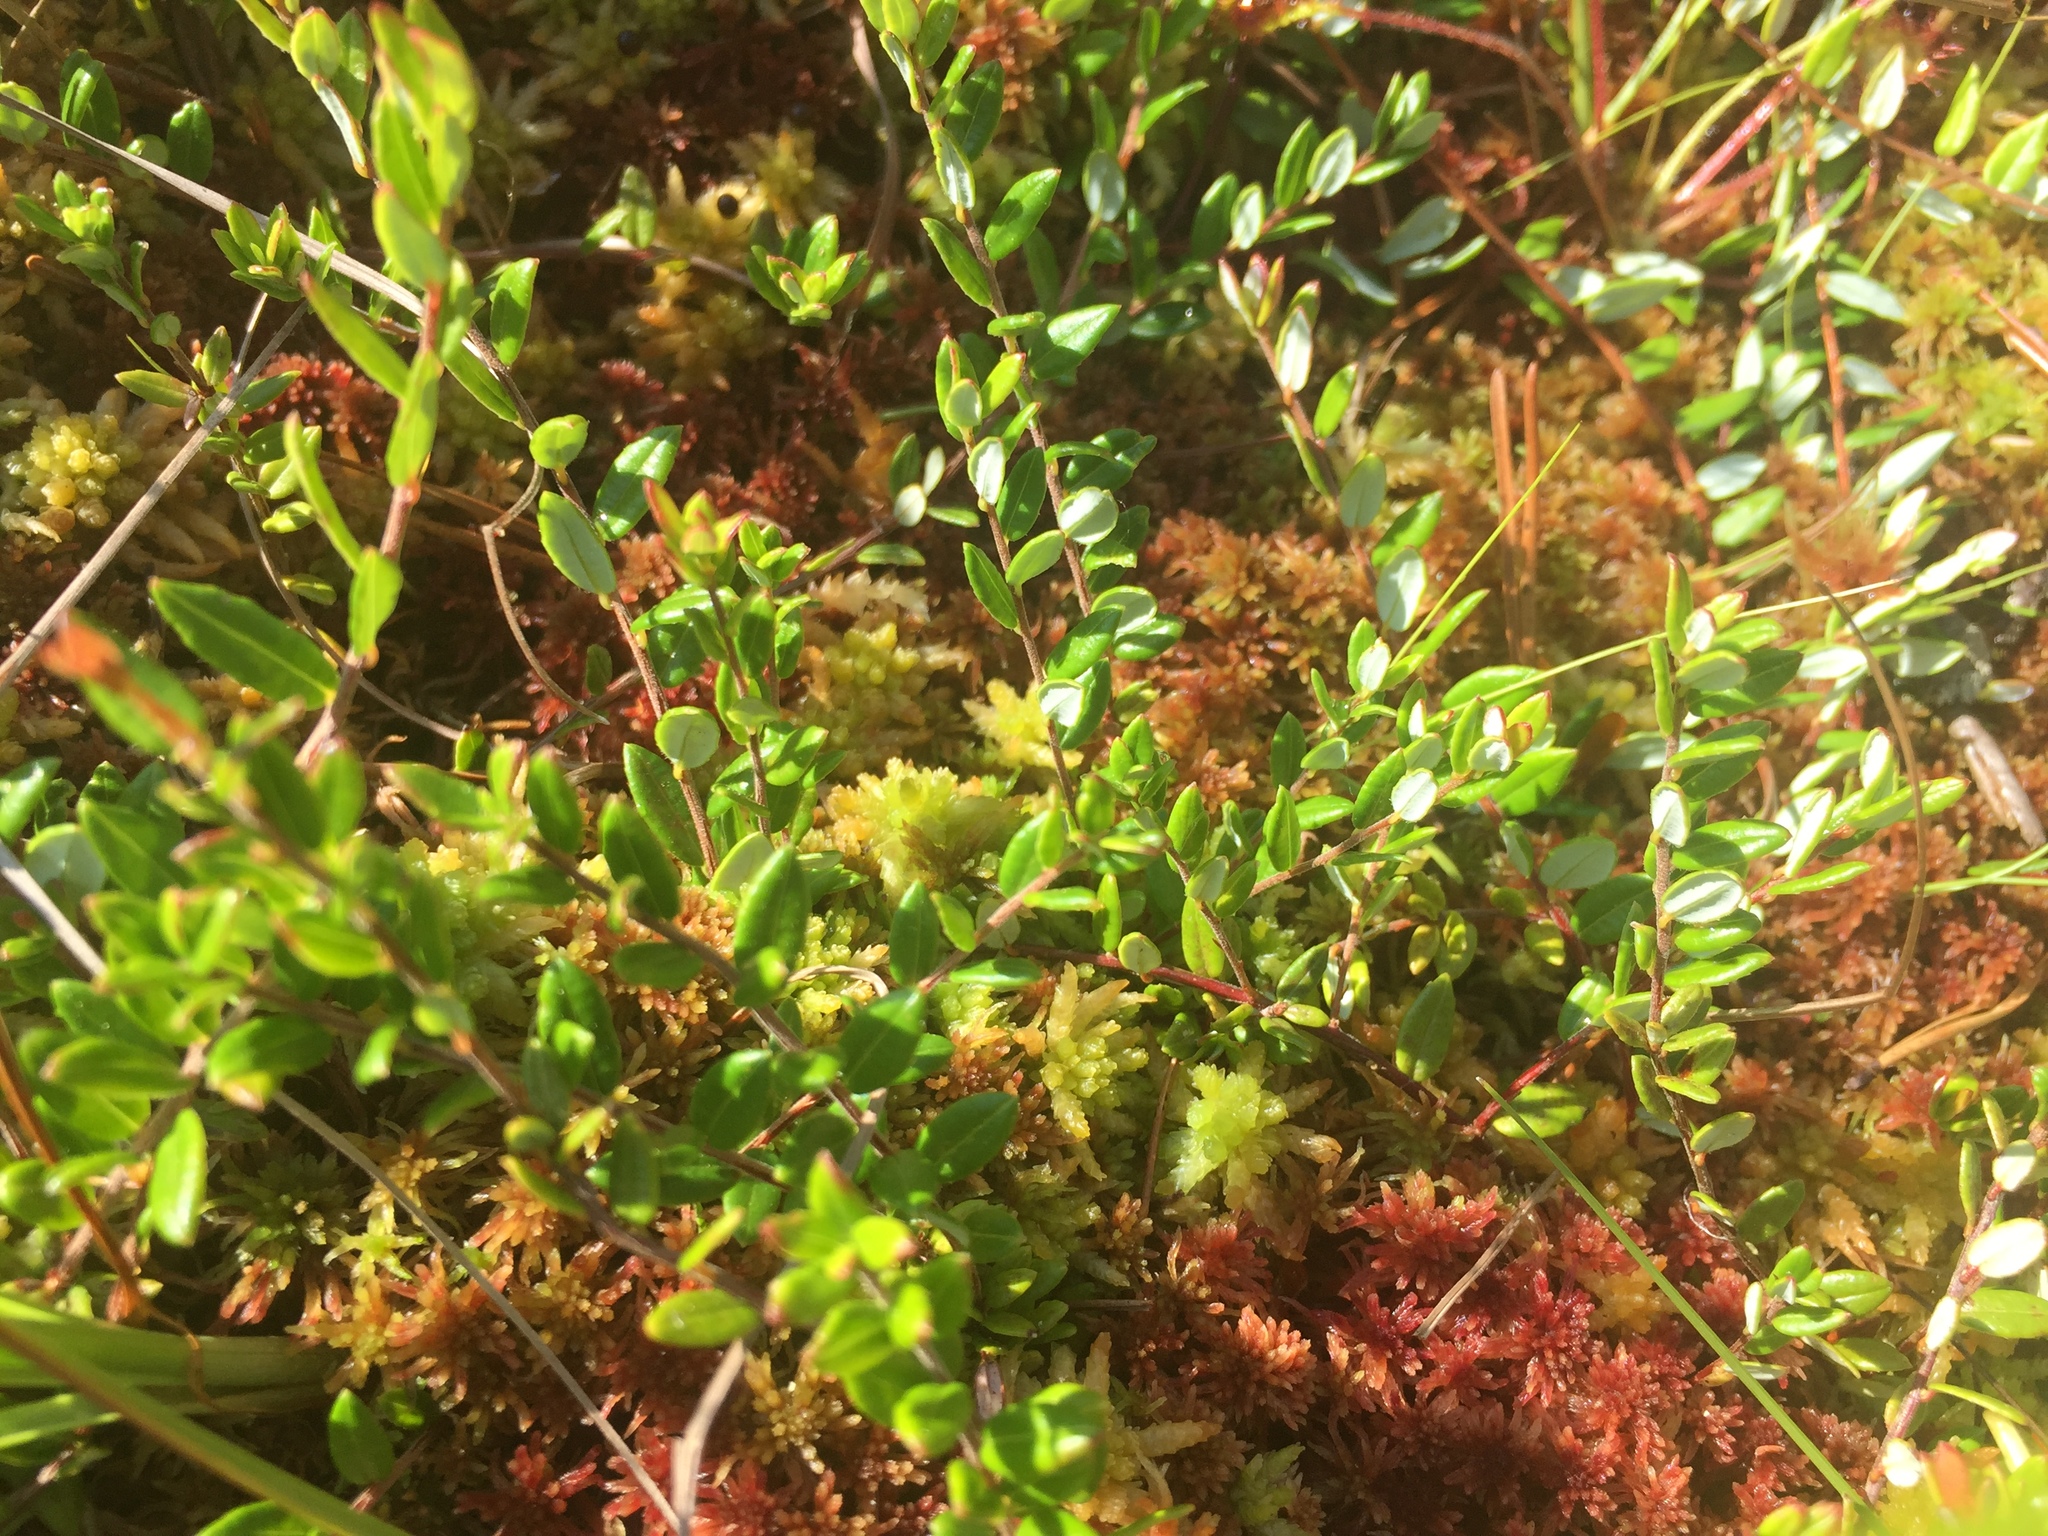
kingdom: Plantae
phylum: Tracheophyta
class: Magnoliopsida
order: Ericales
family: Ericaceae
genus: Vaccinium
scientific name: Vaccinium oxycoccos
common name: Cranberry
